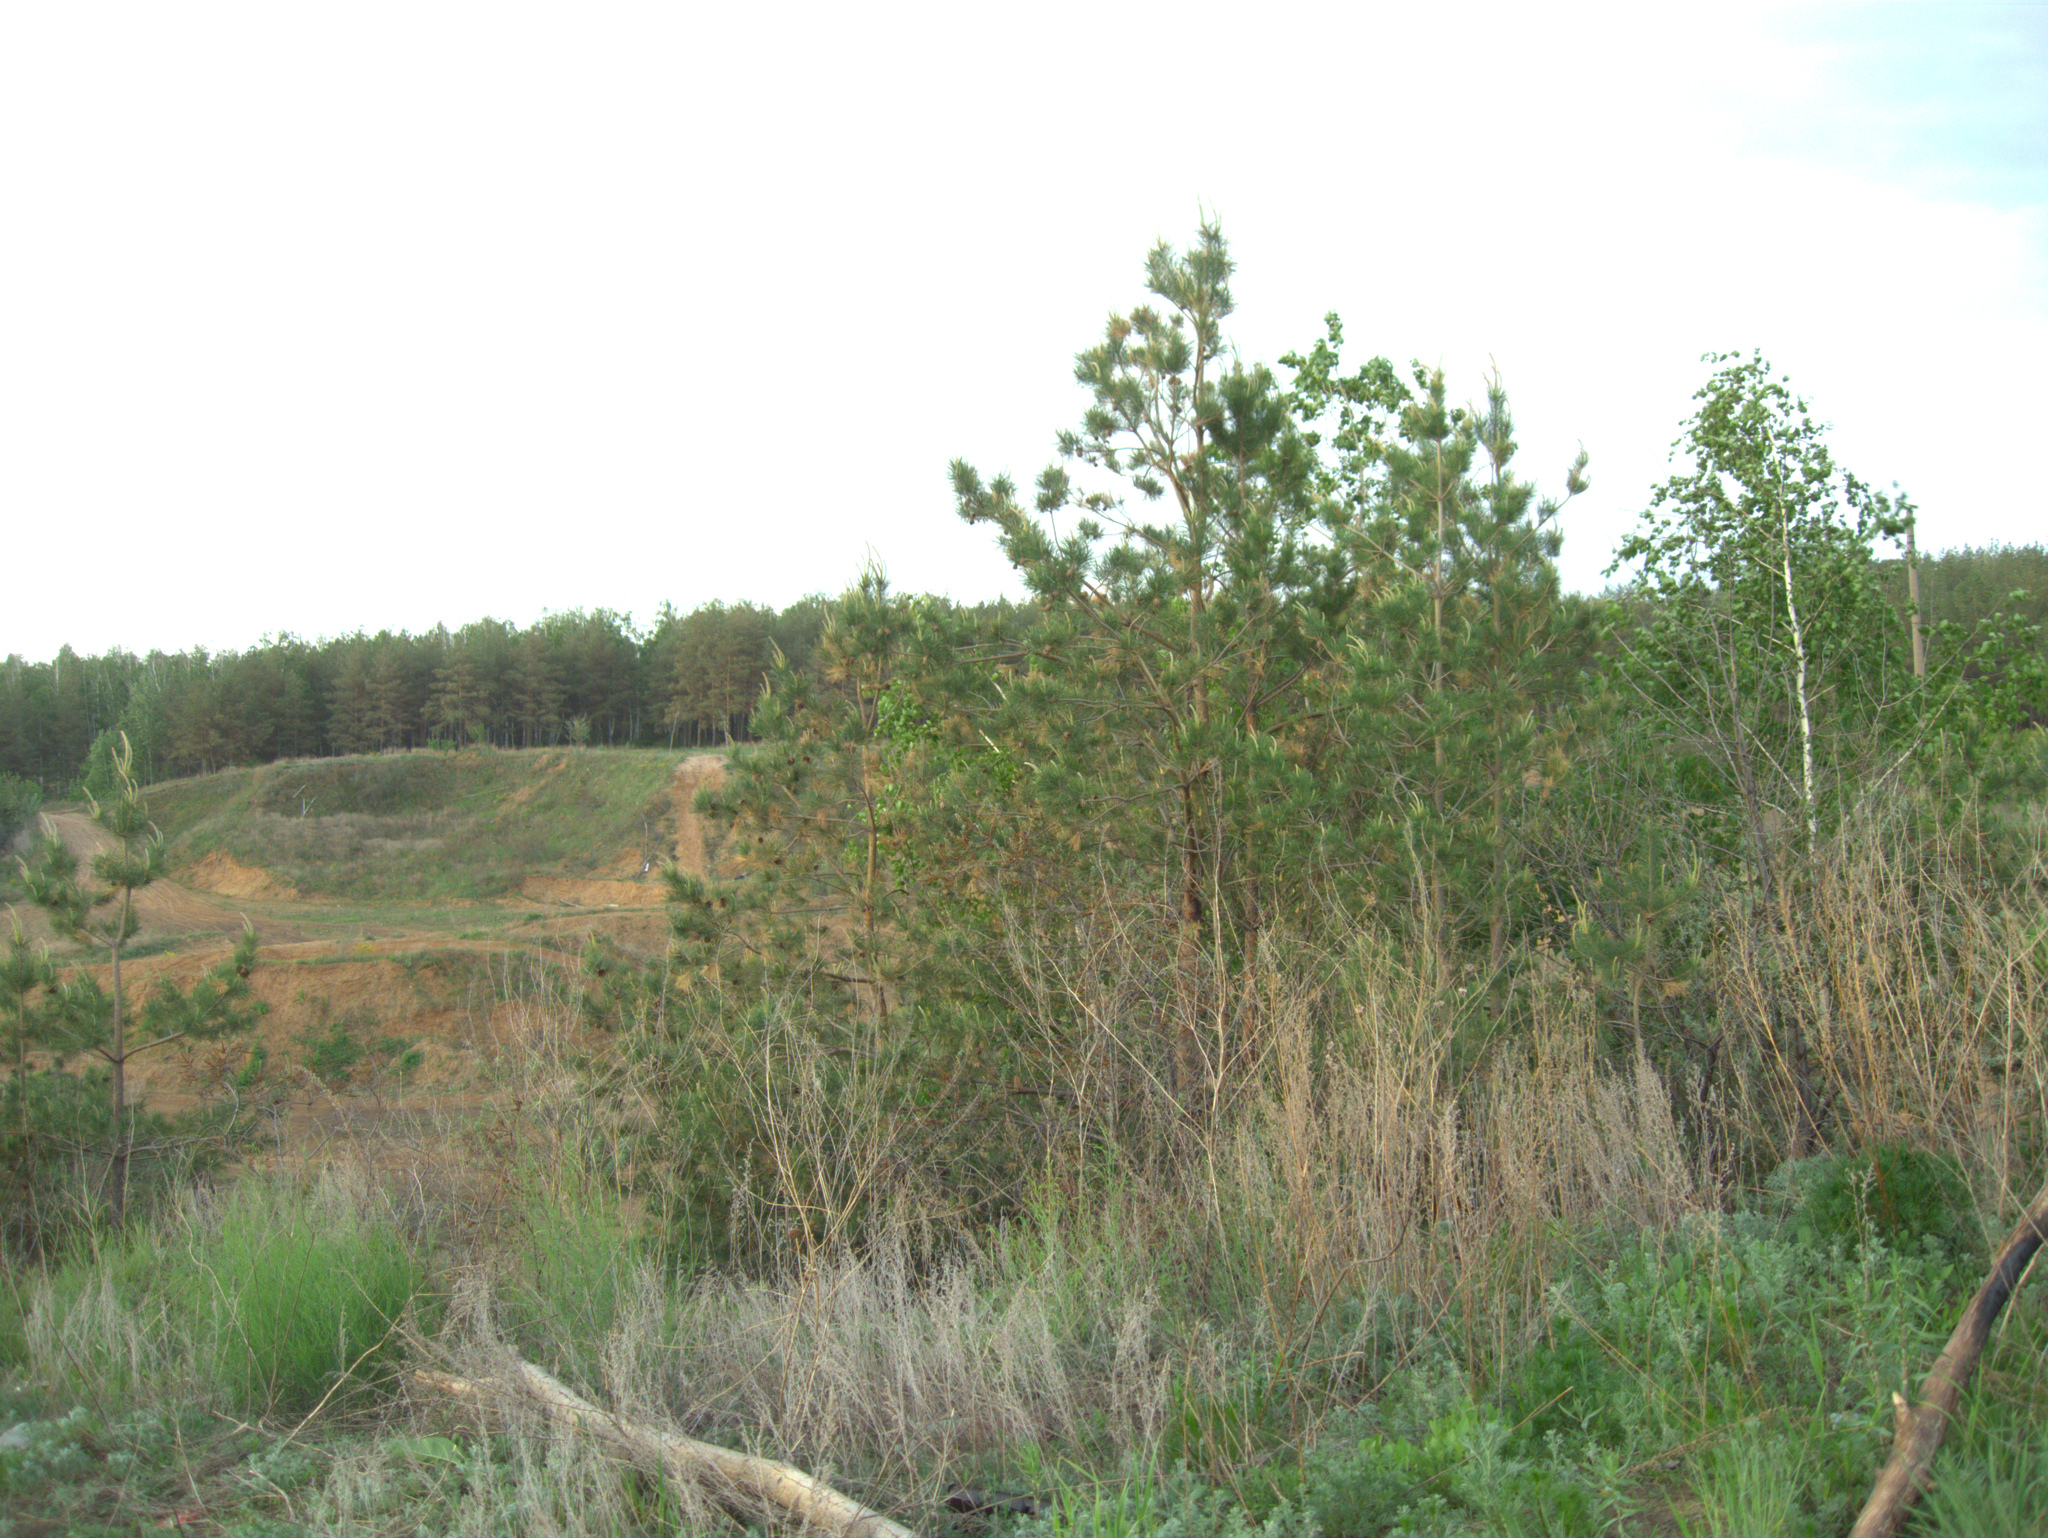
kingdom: Plantae
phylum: Tracheophyta
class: Pinopsida
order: Pinales
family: Pinaceae
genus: Pinus
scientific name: Pinus sylvestris
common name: Scots pine
